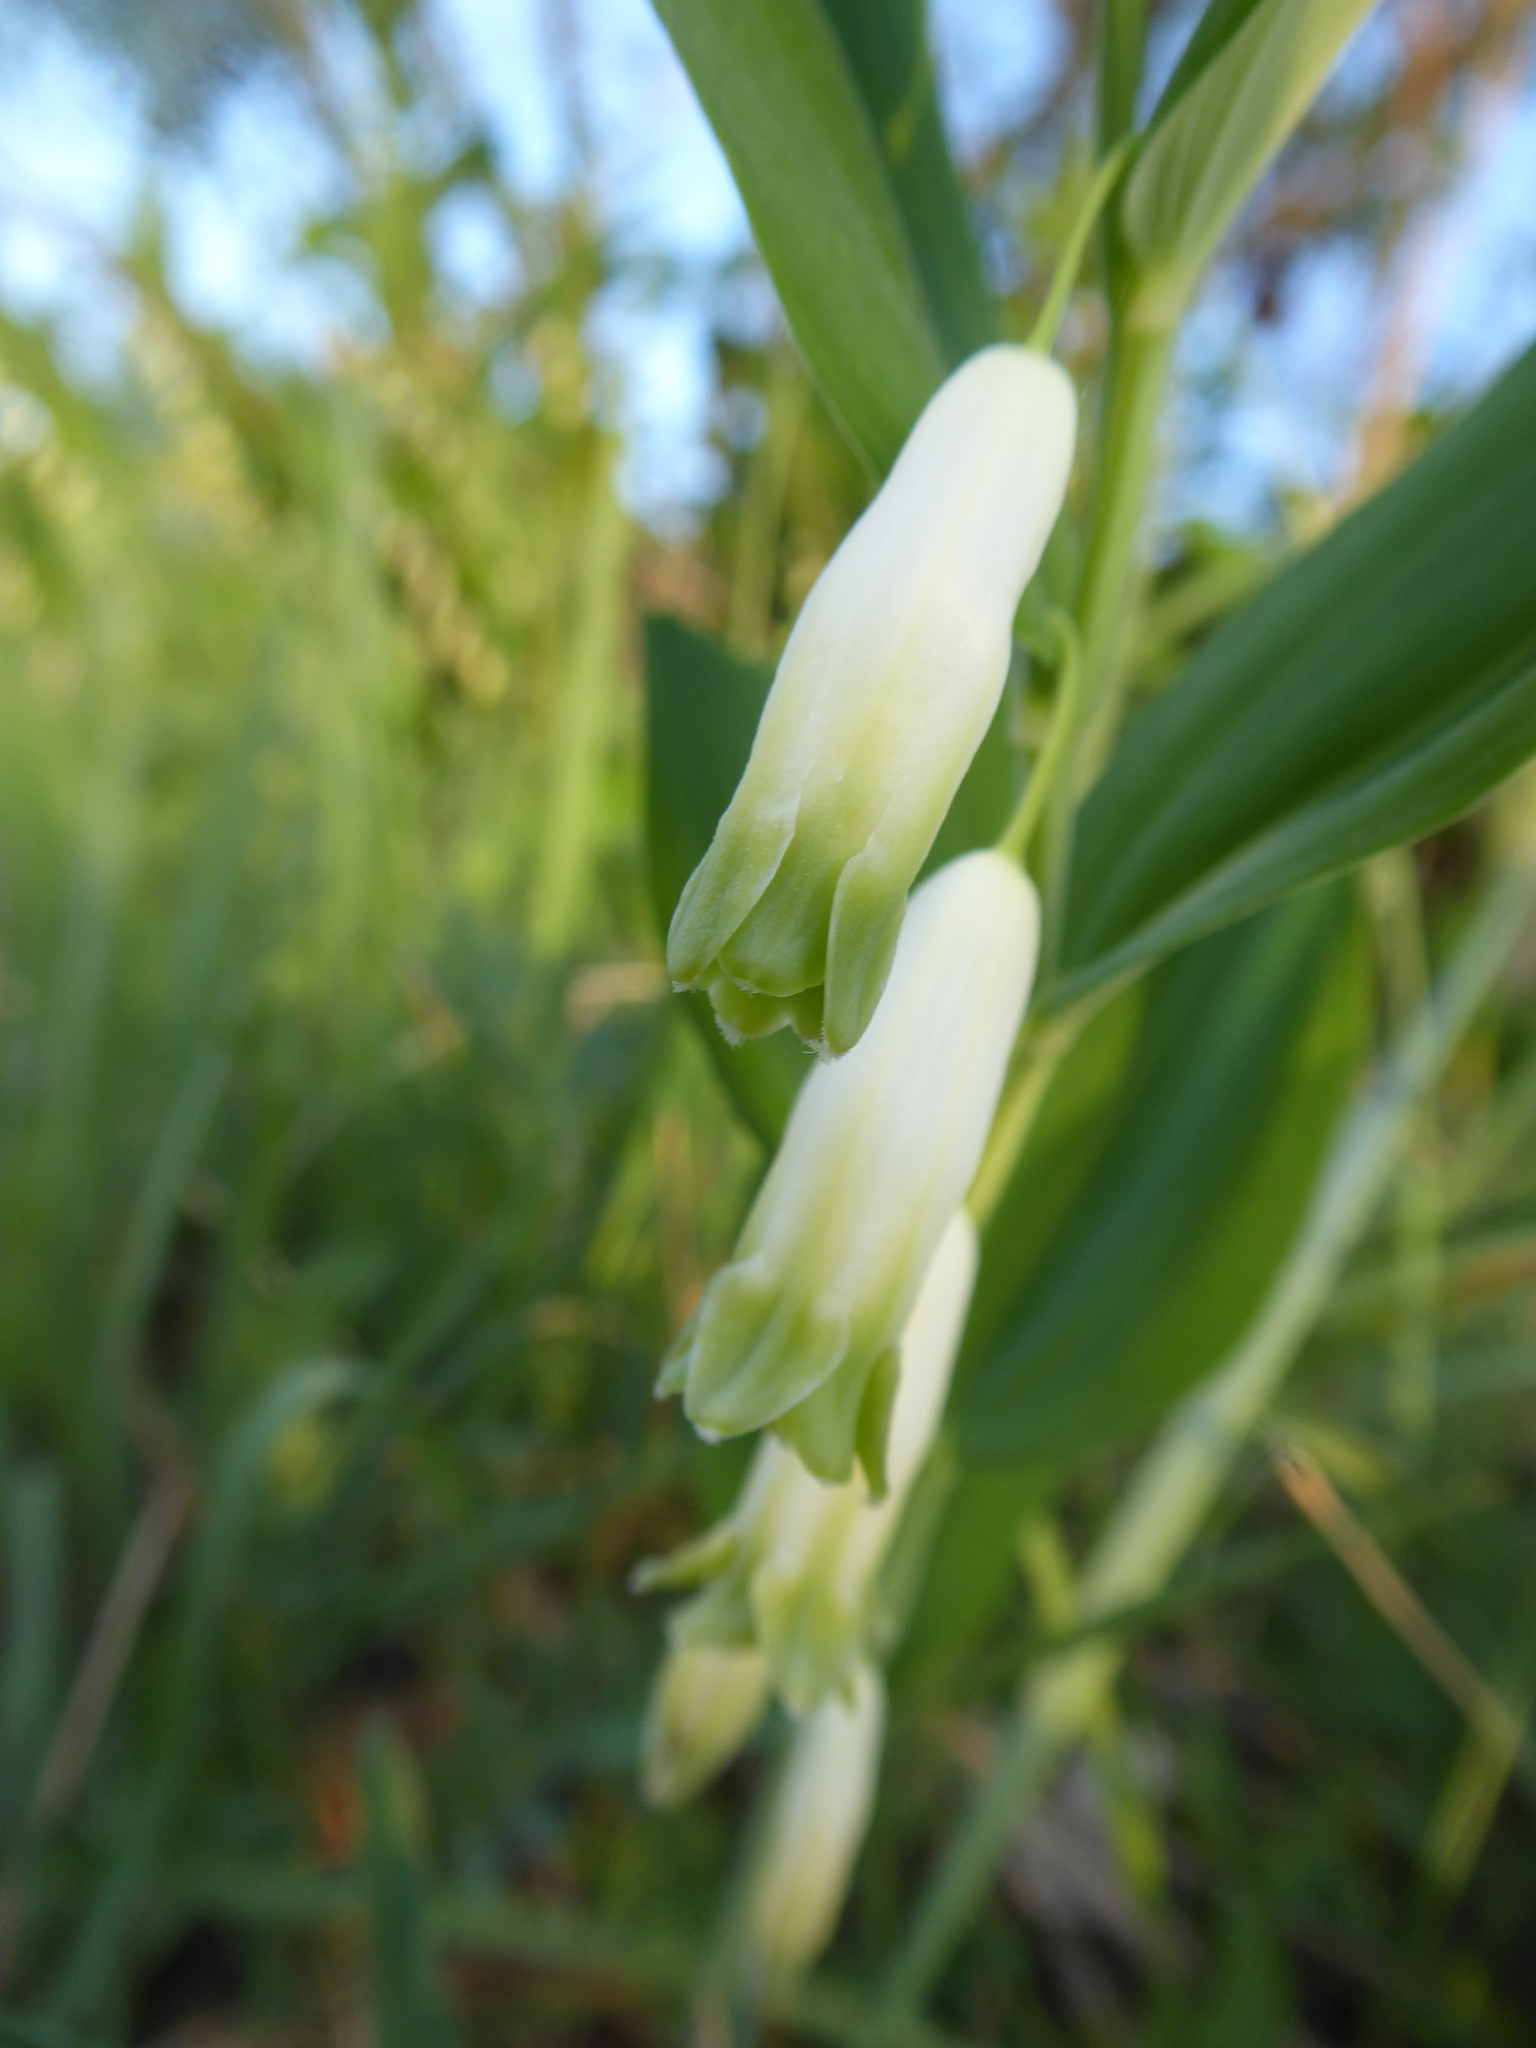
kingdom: Plantae
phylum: Tracheophyta
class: Liliopsida
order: Asparagales
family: Asparagaceae
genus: Polygonatum
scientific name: Polygonatum odoratum
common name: Angular solomon's-seal
